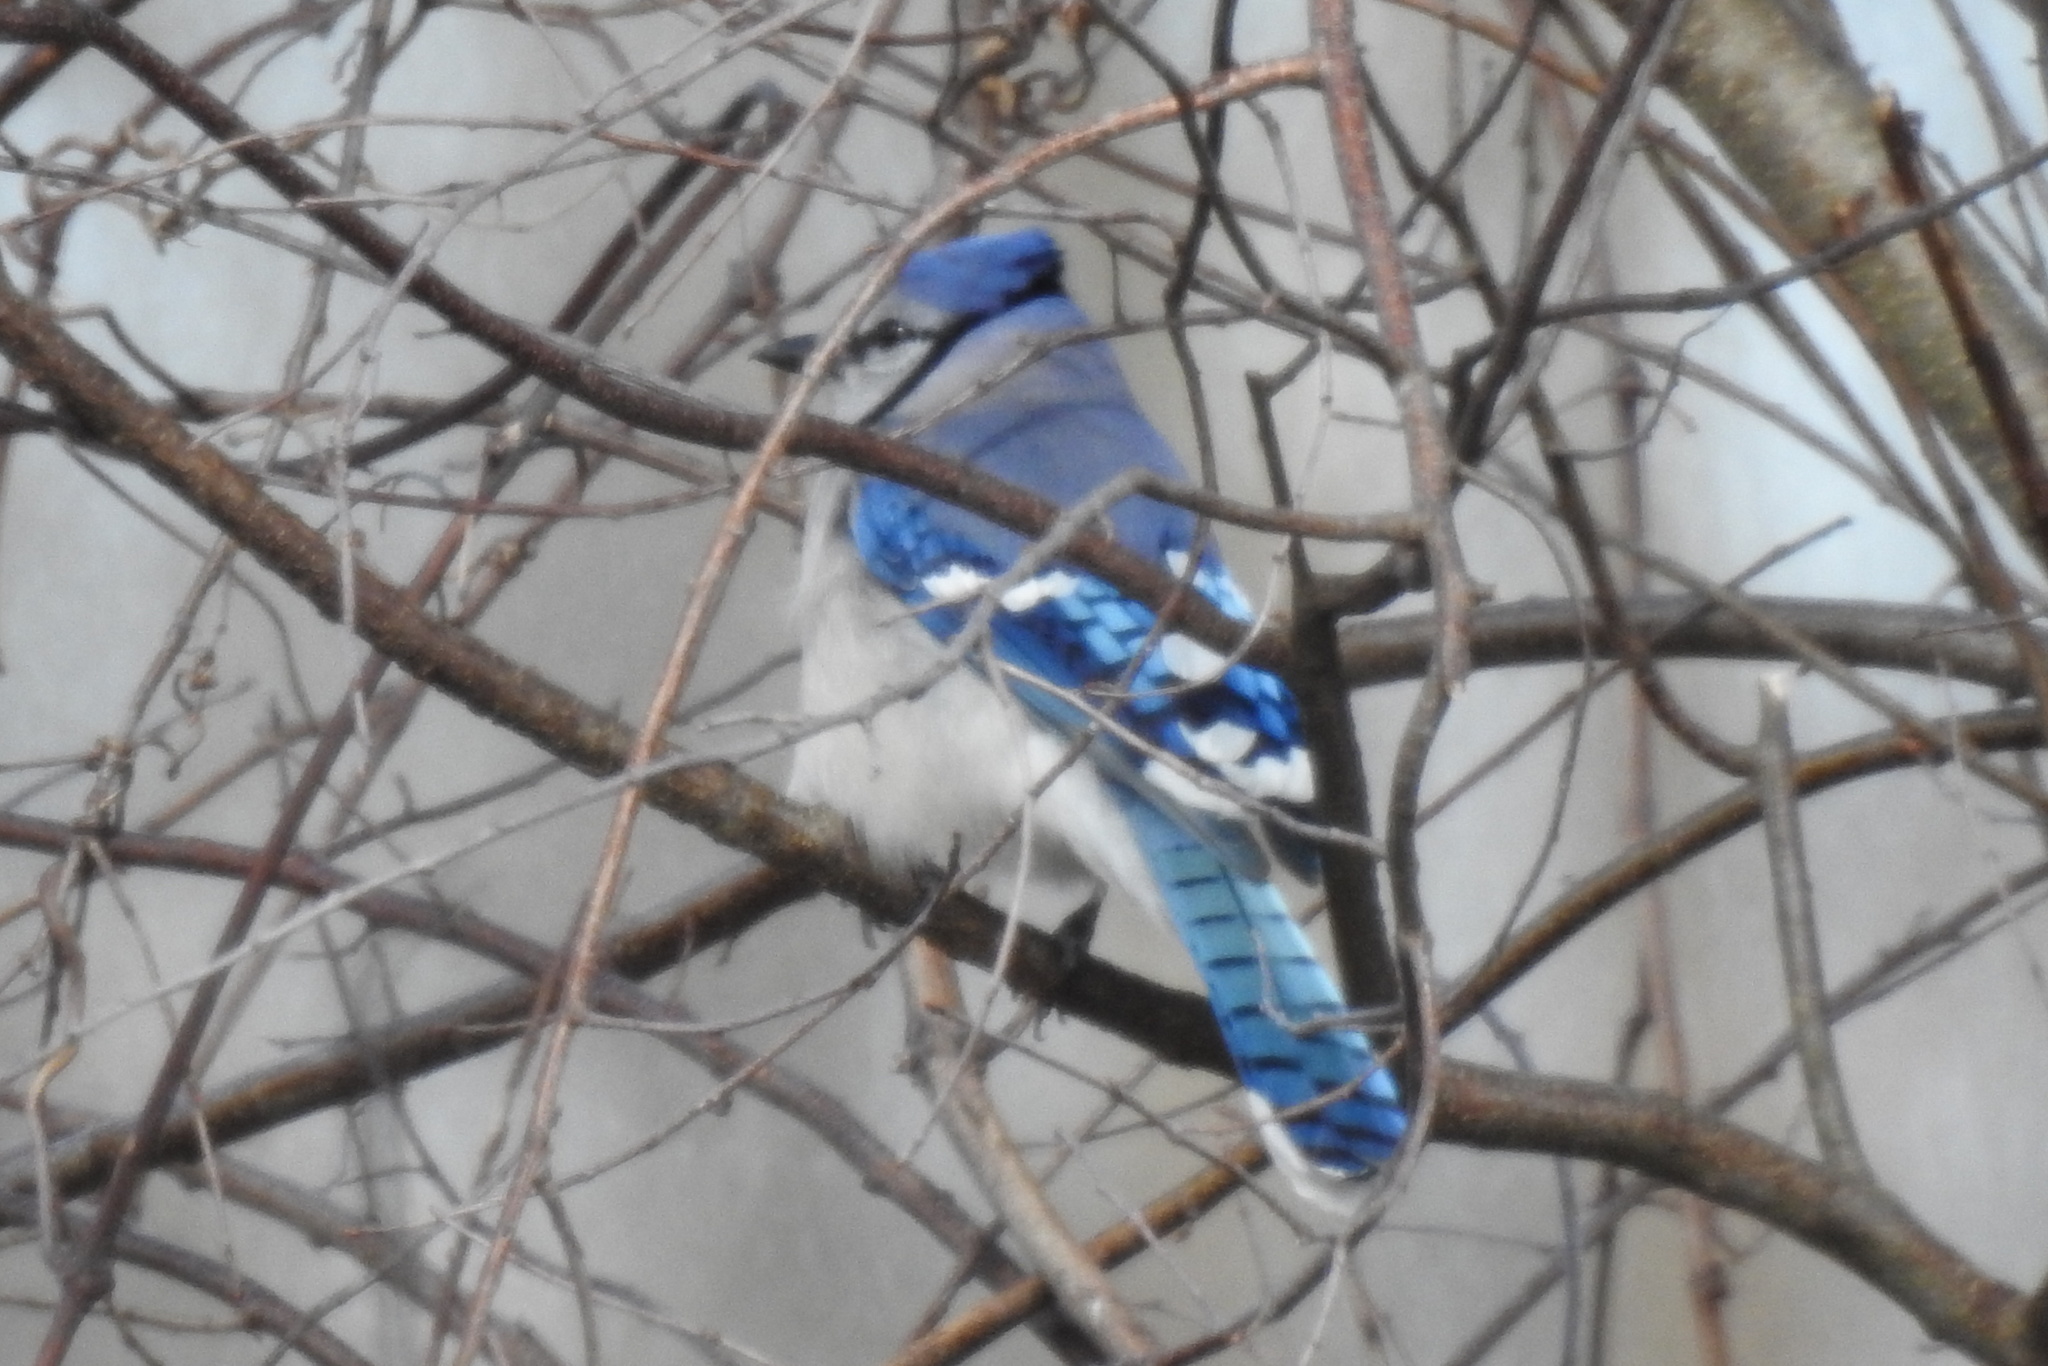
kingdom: Animalia
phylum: Chordata
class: Aves
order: Passeriformes
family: Corvidae
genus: Cyanocitta
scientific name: Cyanocitta cristata
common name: Blue jay
